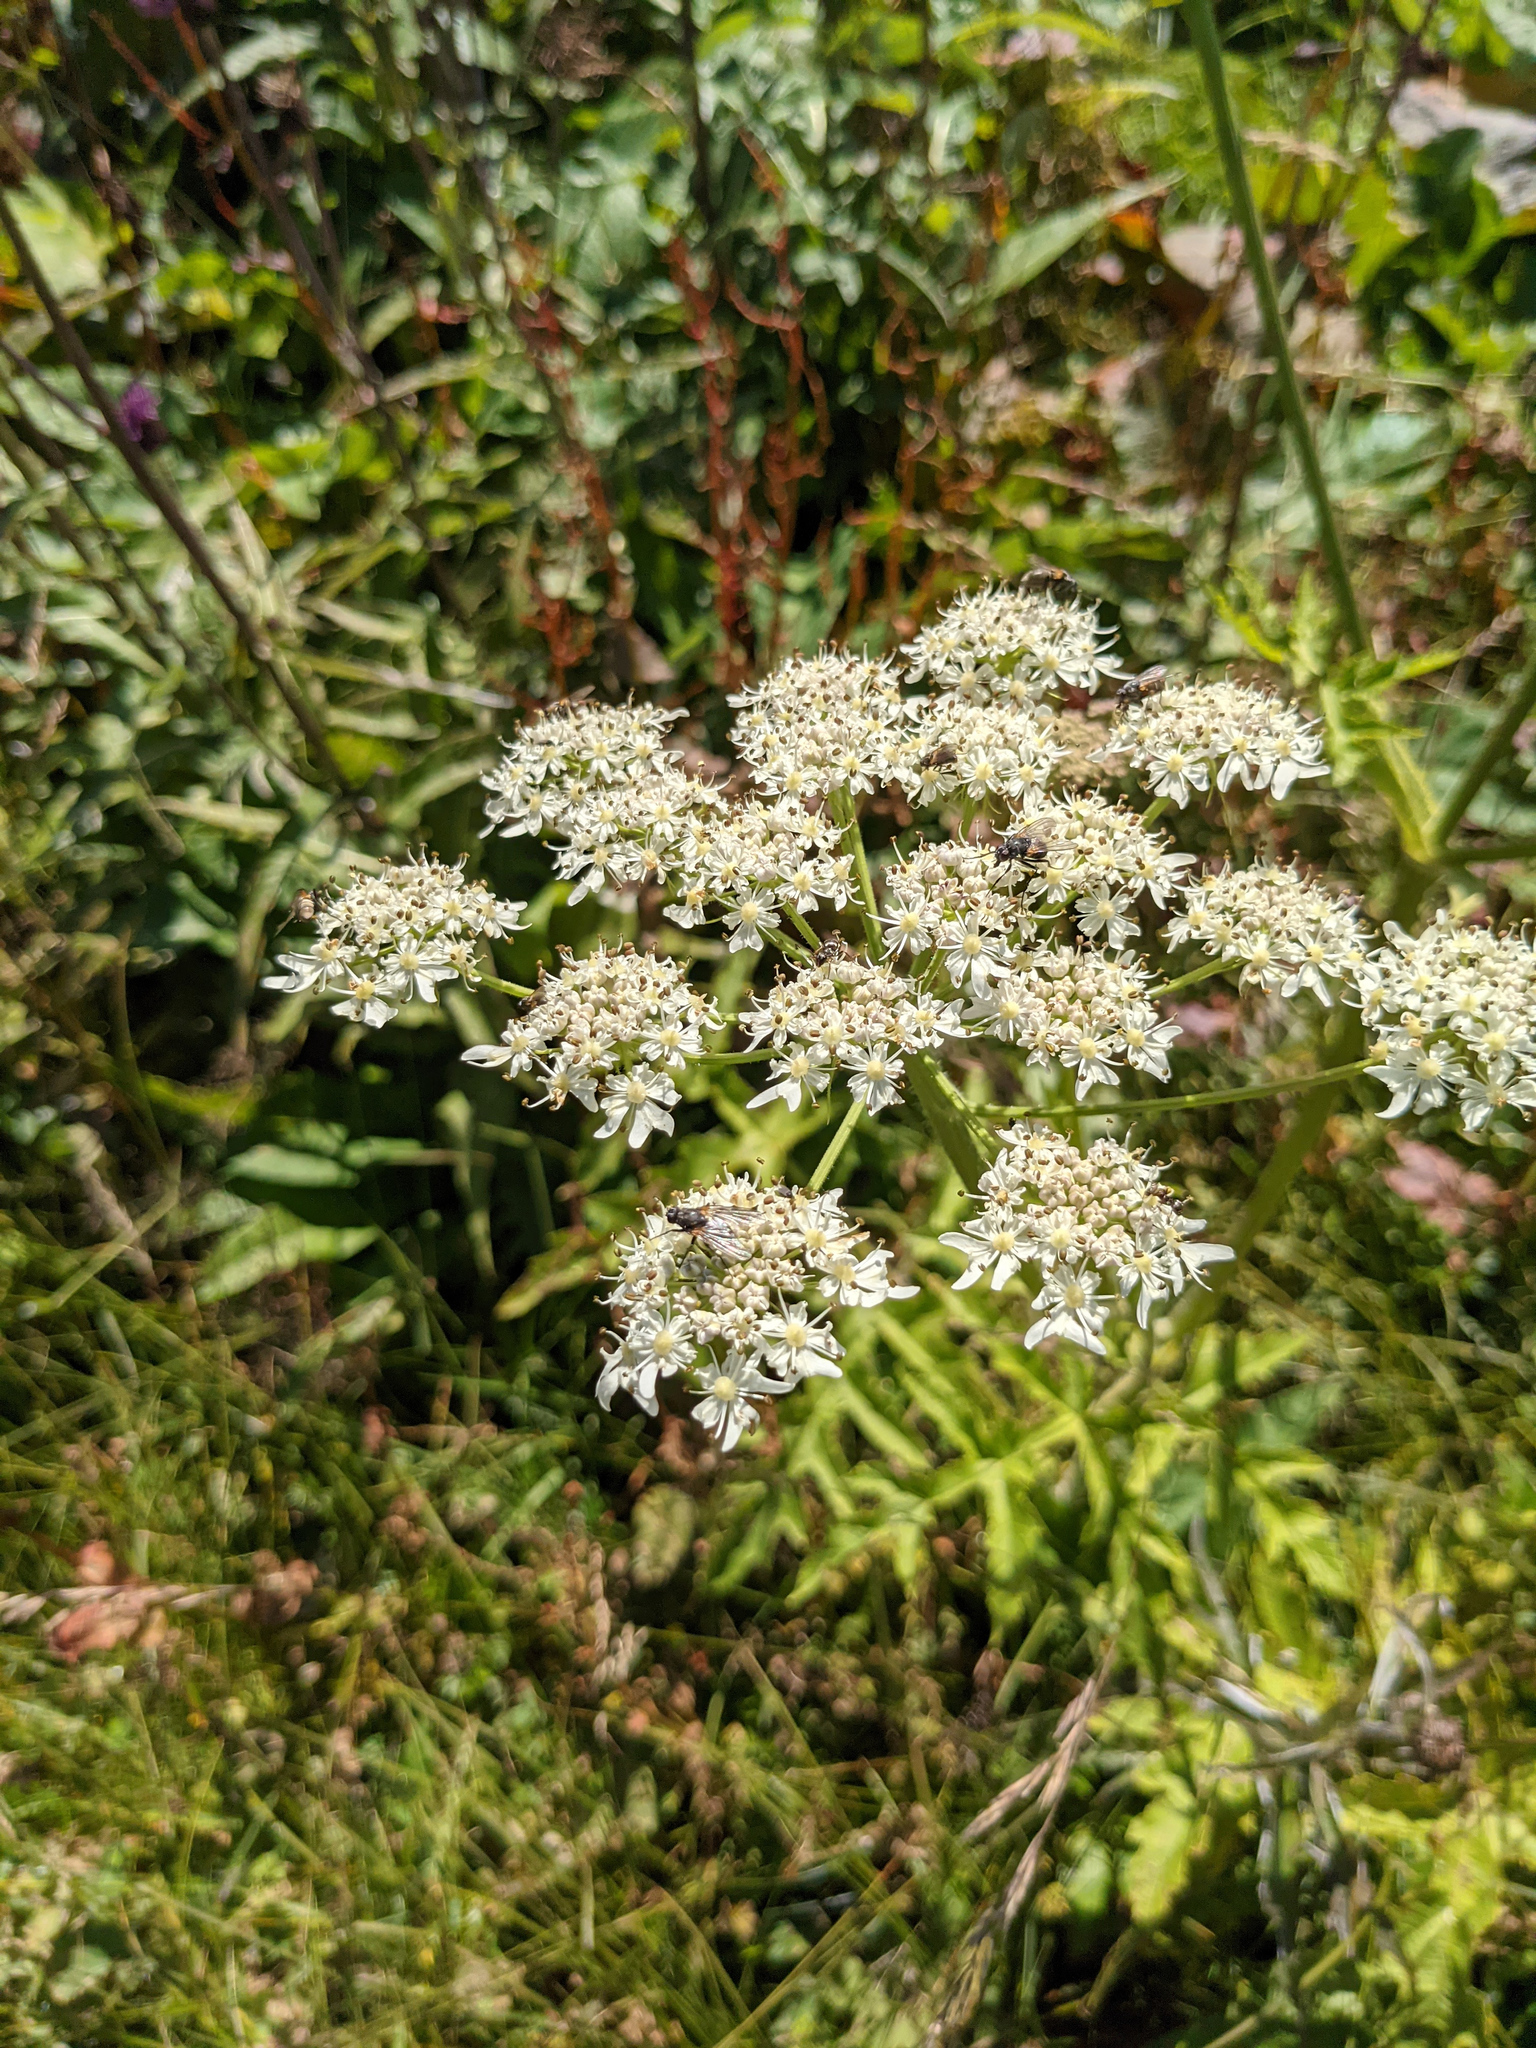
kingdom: Plantae
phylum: Tracheophyta
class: Magnoliopsida
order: Apiales
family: Apiaceae
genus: Heracleum
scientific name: Heracleum sphondylium
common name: Hogweed
